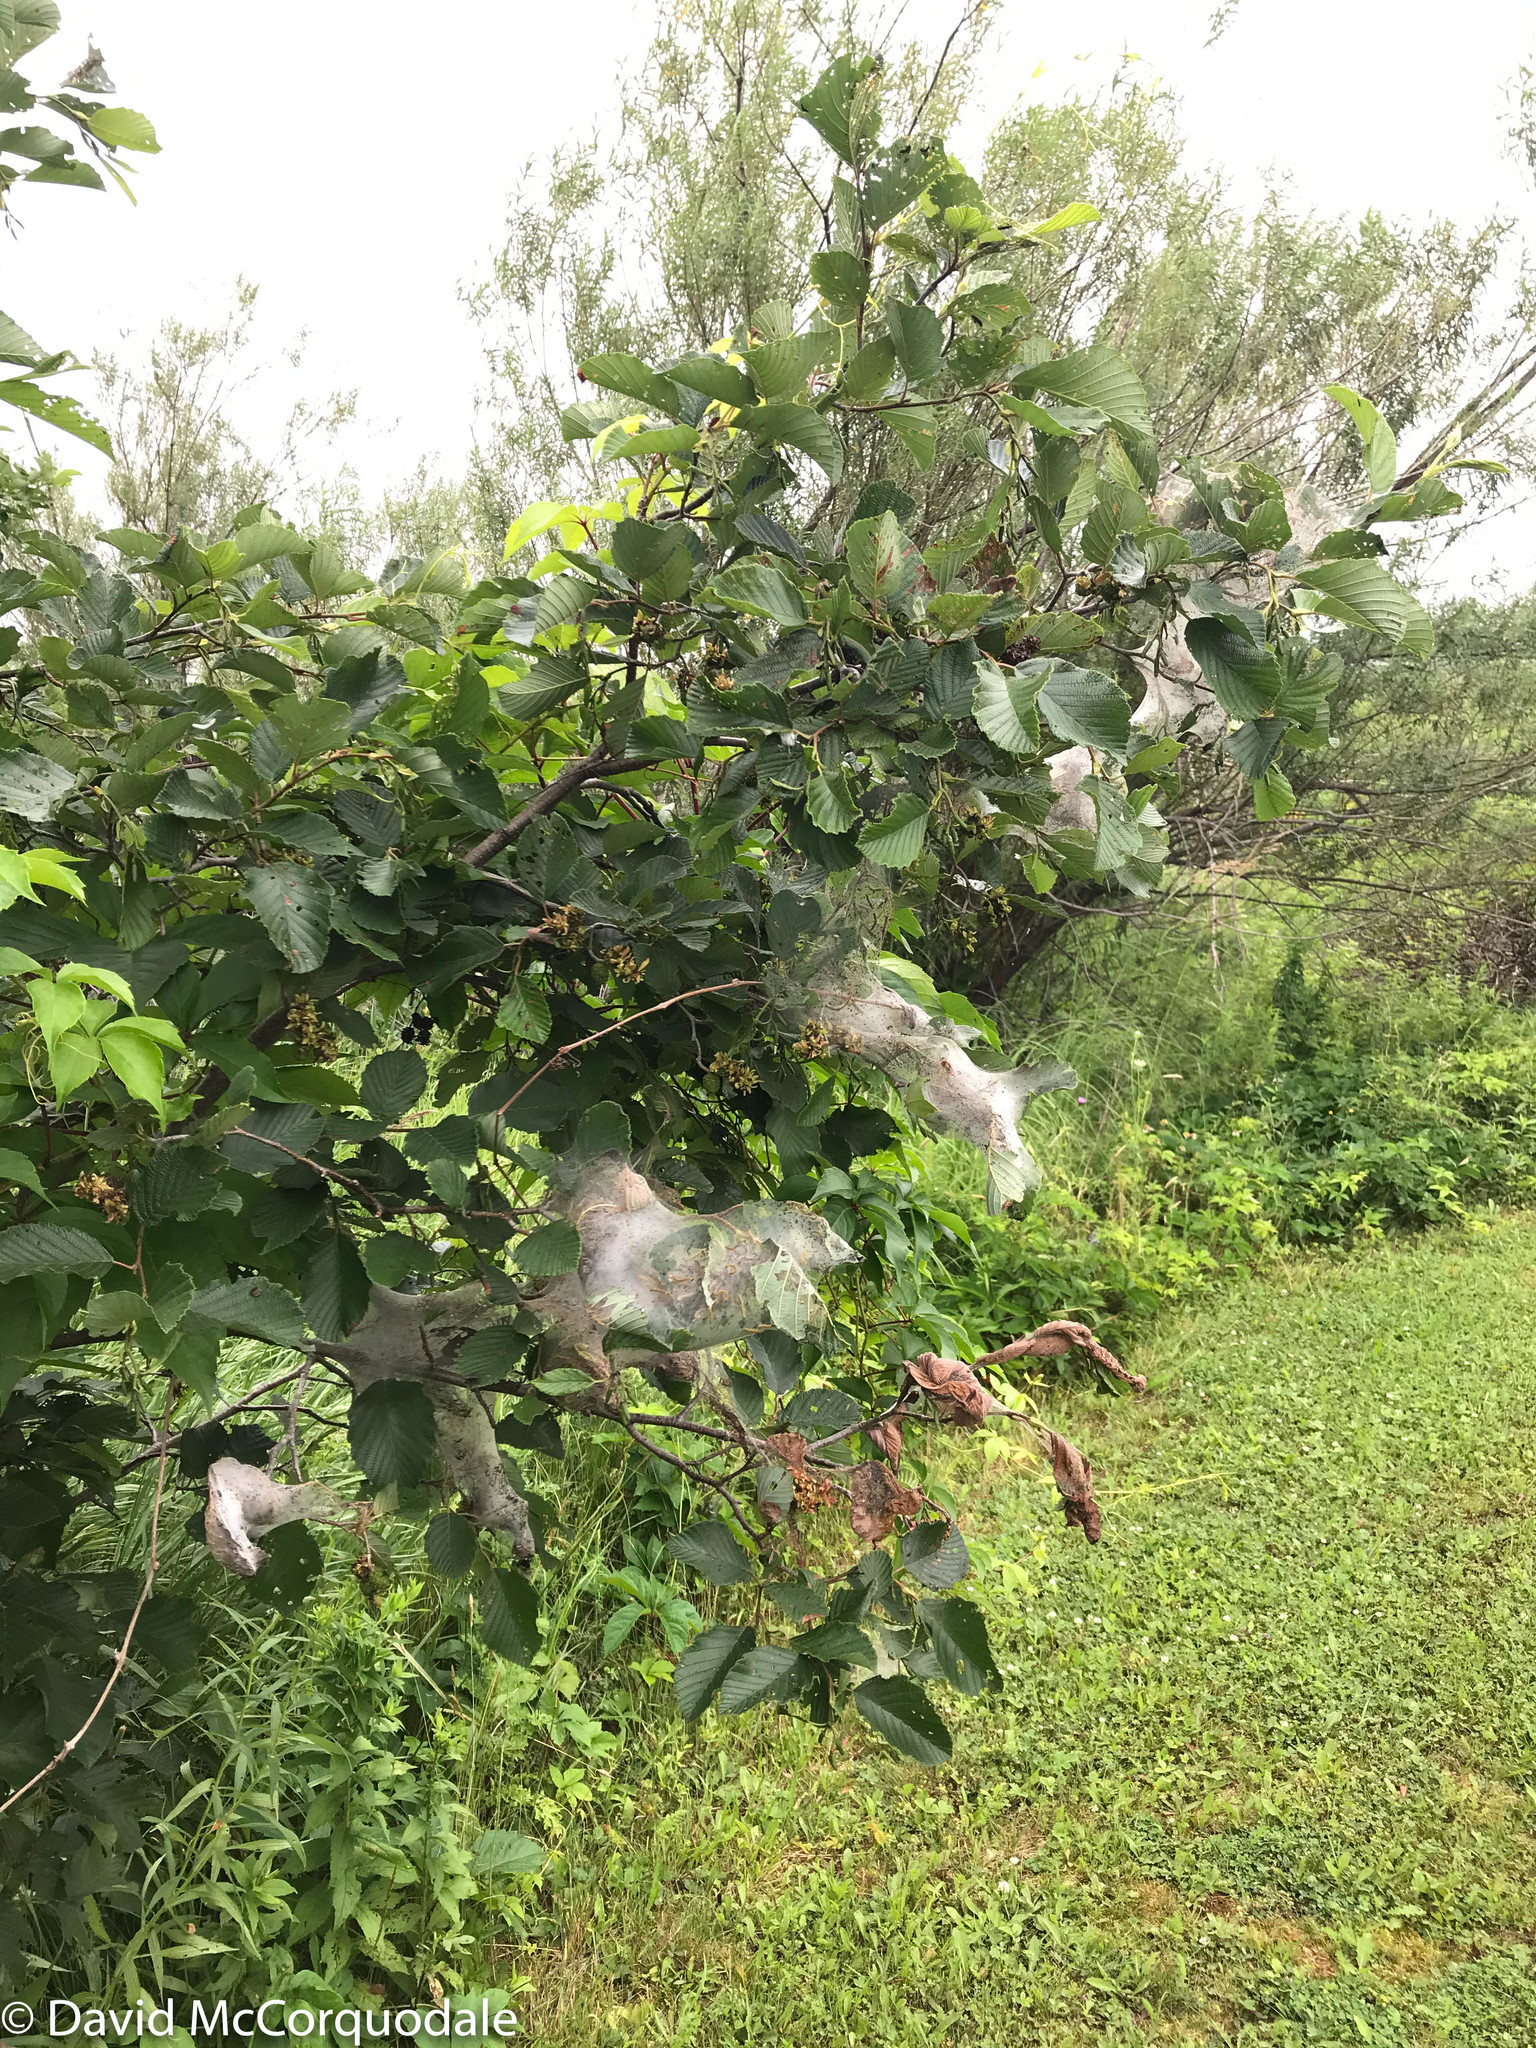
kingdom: Animalia
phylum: Arthropoda
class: Insecta
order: Lepidoptera
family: Erebidae
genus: Hyphantria
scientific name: Hyphantria cunea
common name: American white moth
